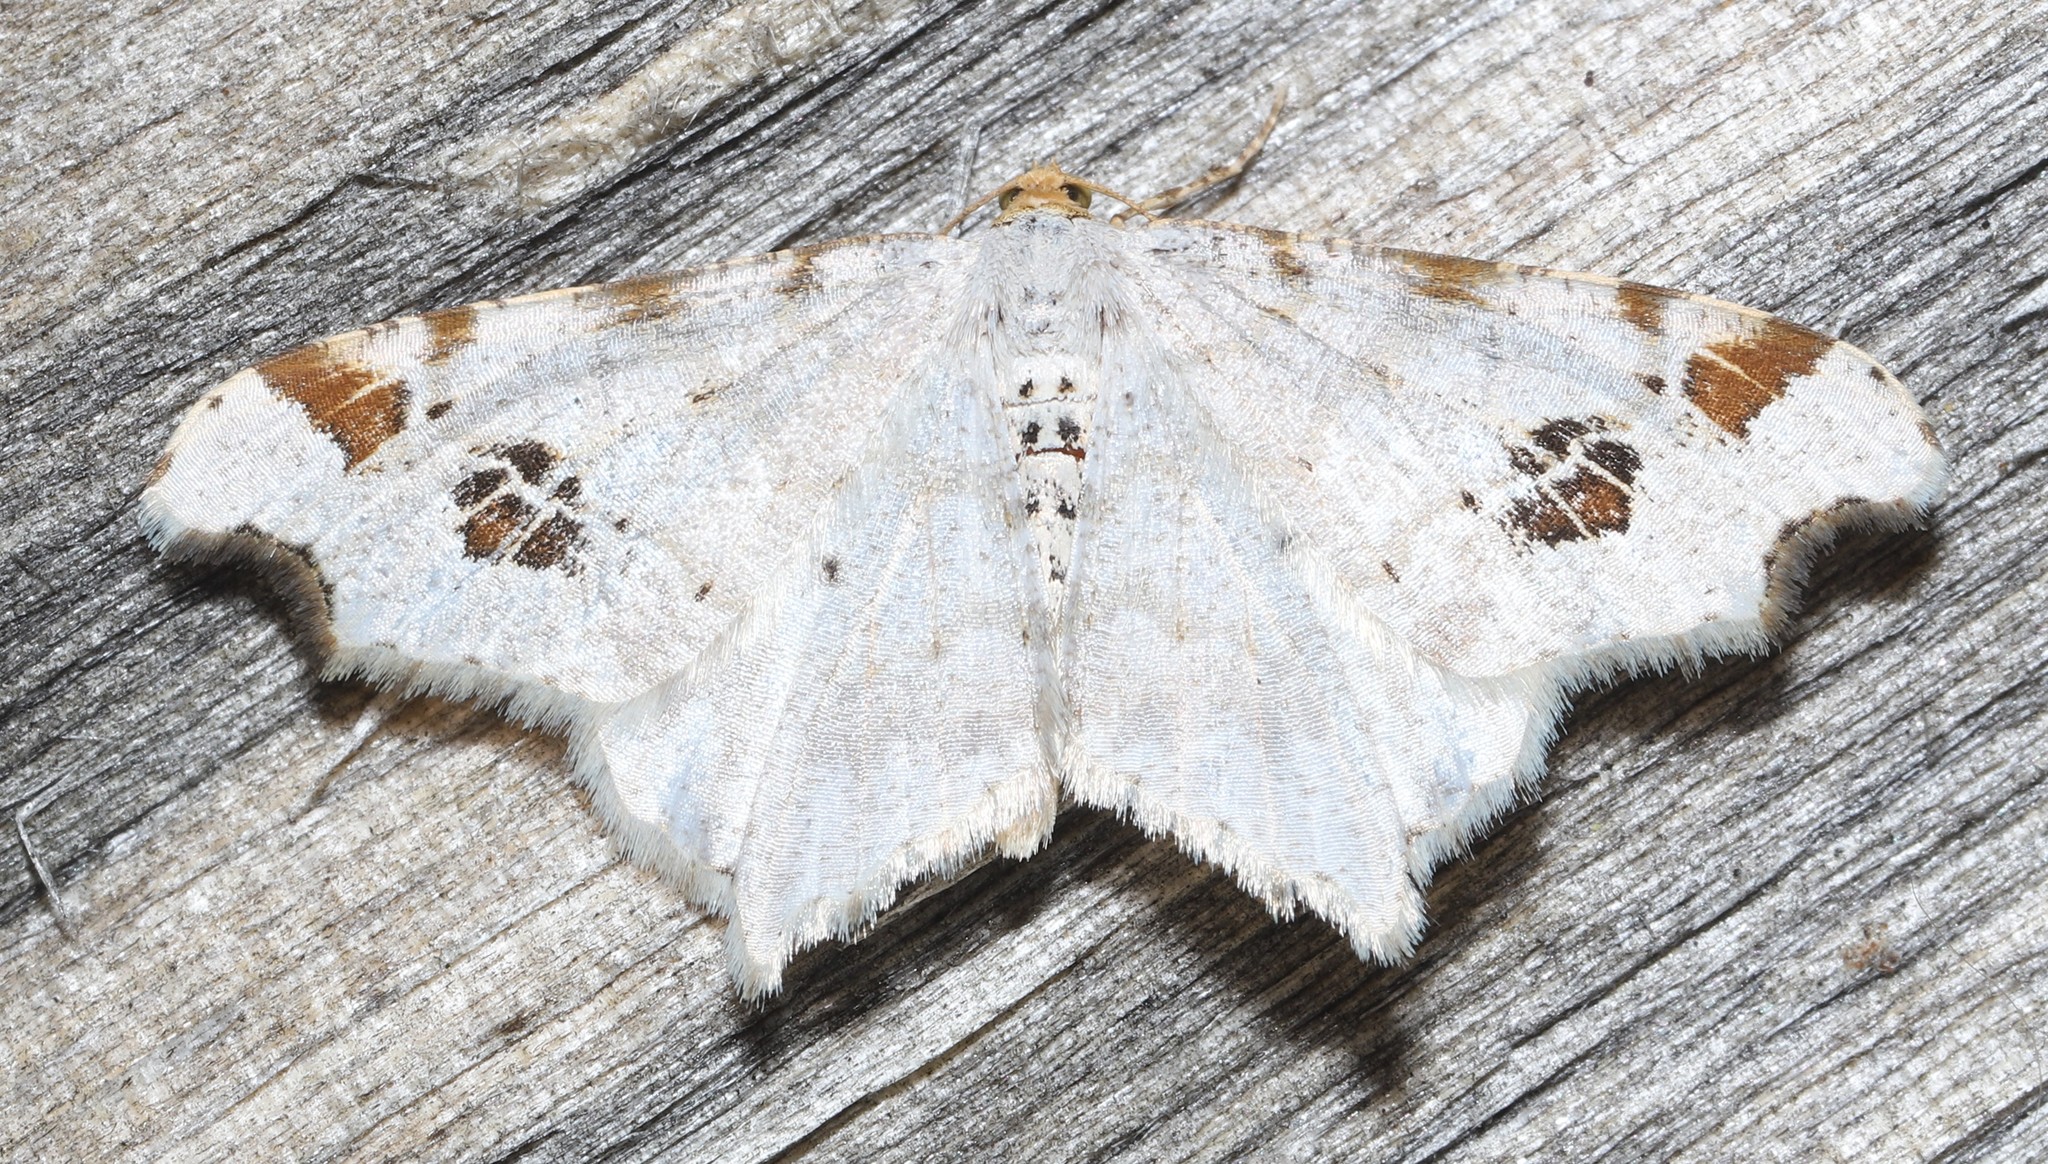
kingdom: Animalia
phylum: Arthropoda
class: Insecta
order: Lepidoptera
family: Geometridae
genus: Macaria
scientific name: Macaria ulsterata
